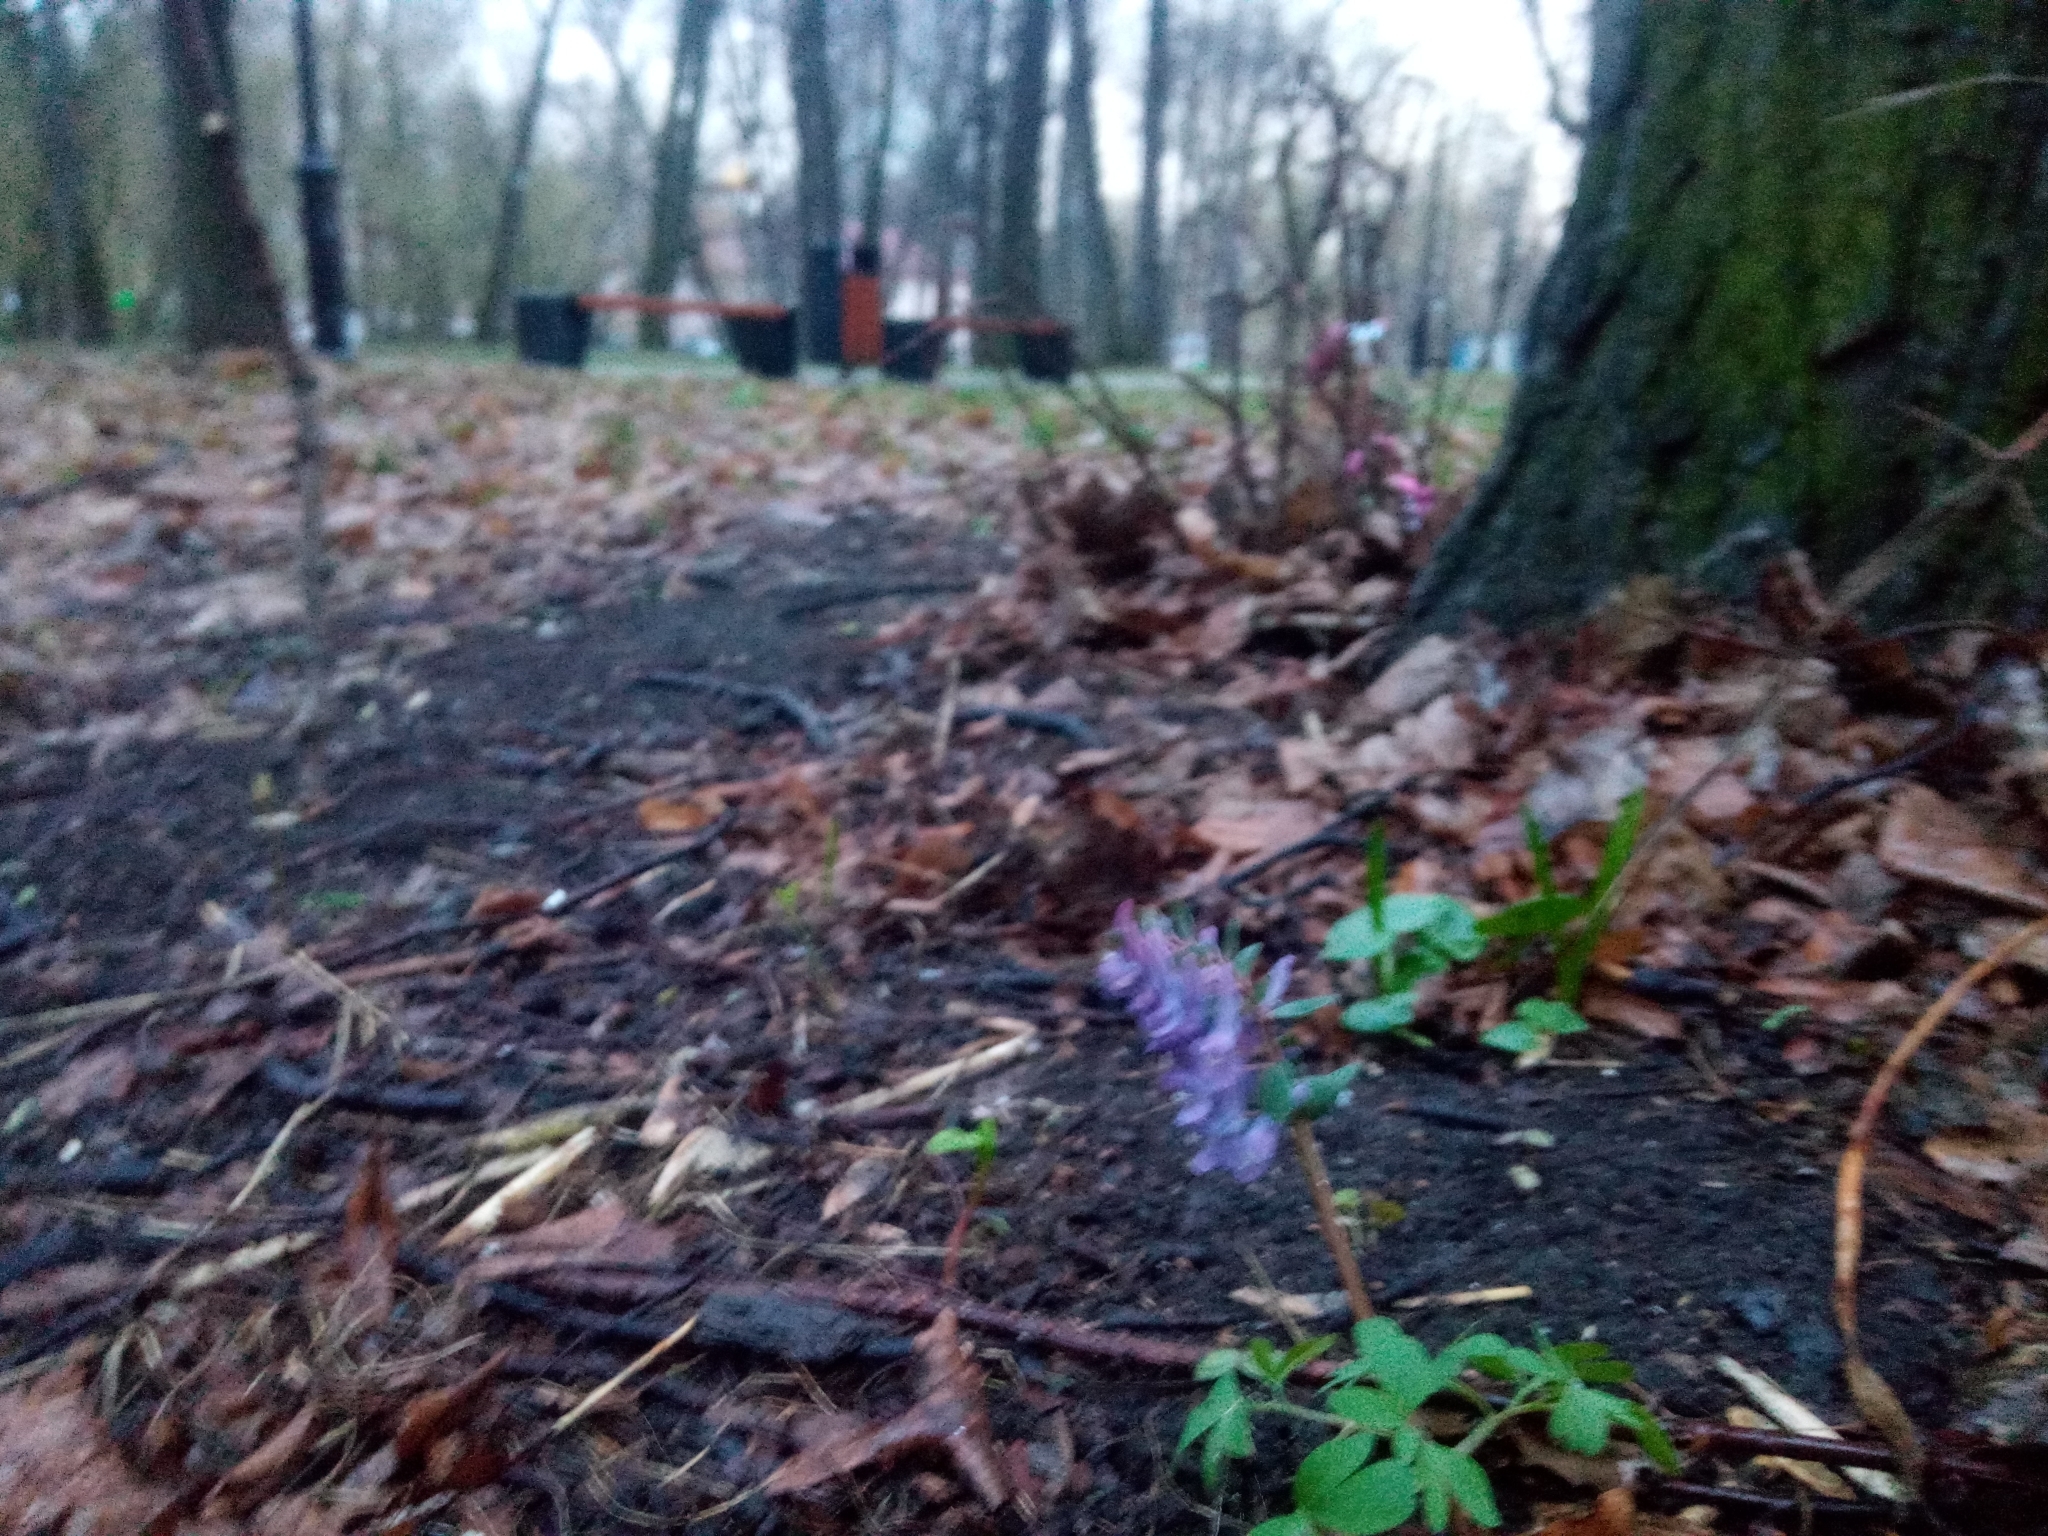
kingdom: Plantae
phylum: Tracheophyta
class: Magnoliopsida
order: Ranunculales
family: Papaveraceae
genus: Corydalis
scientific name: Corydalis solida
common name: Bird-in-a-bush
